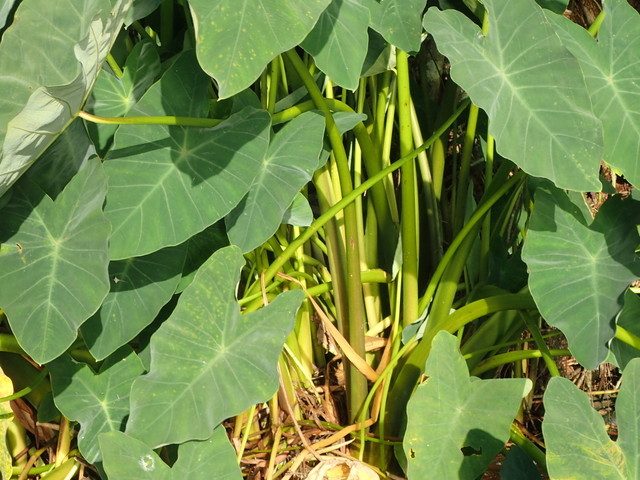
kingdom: Plantae
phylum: Tracheophyta
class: Liliopsida
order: Alismatales
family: Araceae
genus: Colocasia
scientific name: Colocasia esculenta
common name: Taro
